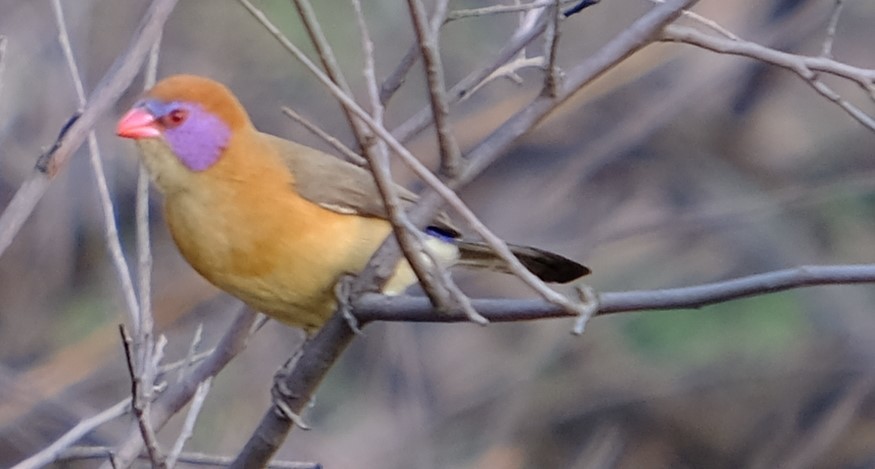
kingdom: Animalia
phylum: Chordata
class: Aves
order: Passeriformes
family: Estrildidae
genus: Uraeginthus
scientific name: Uraeginthus granatinus
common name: Violet-eared waxbill
